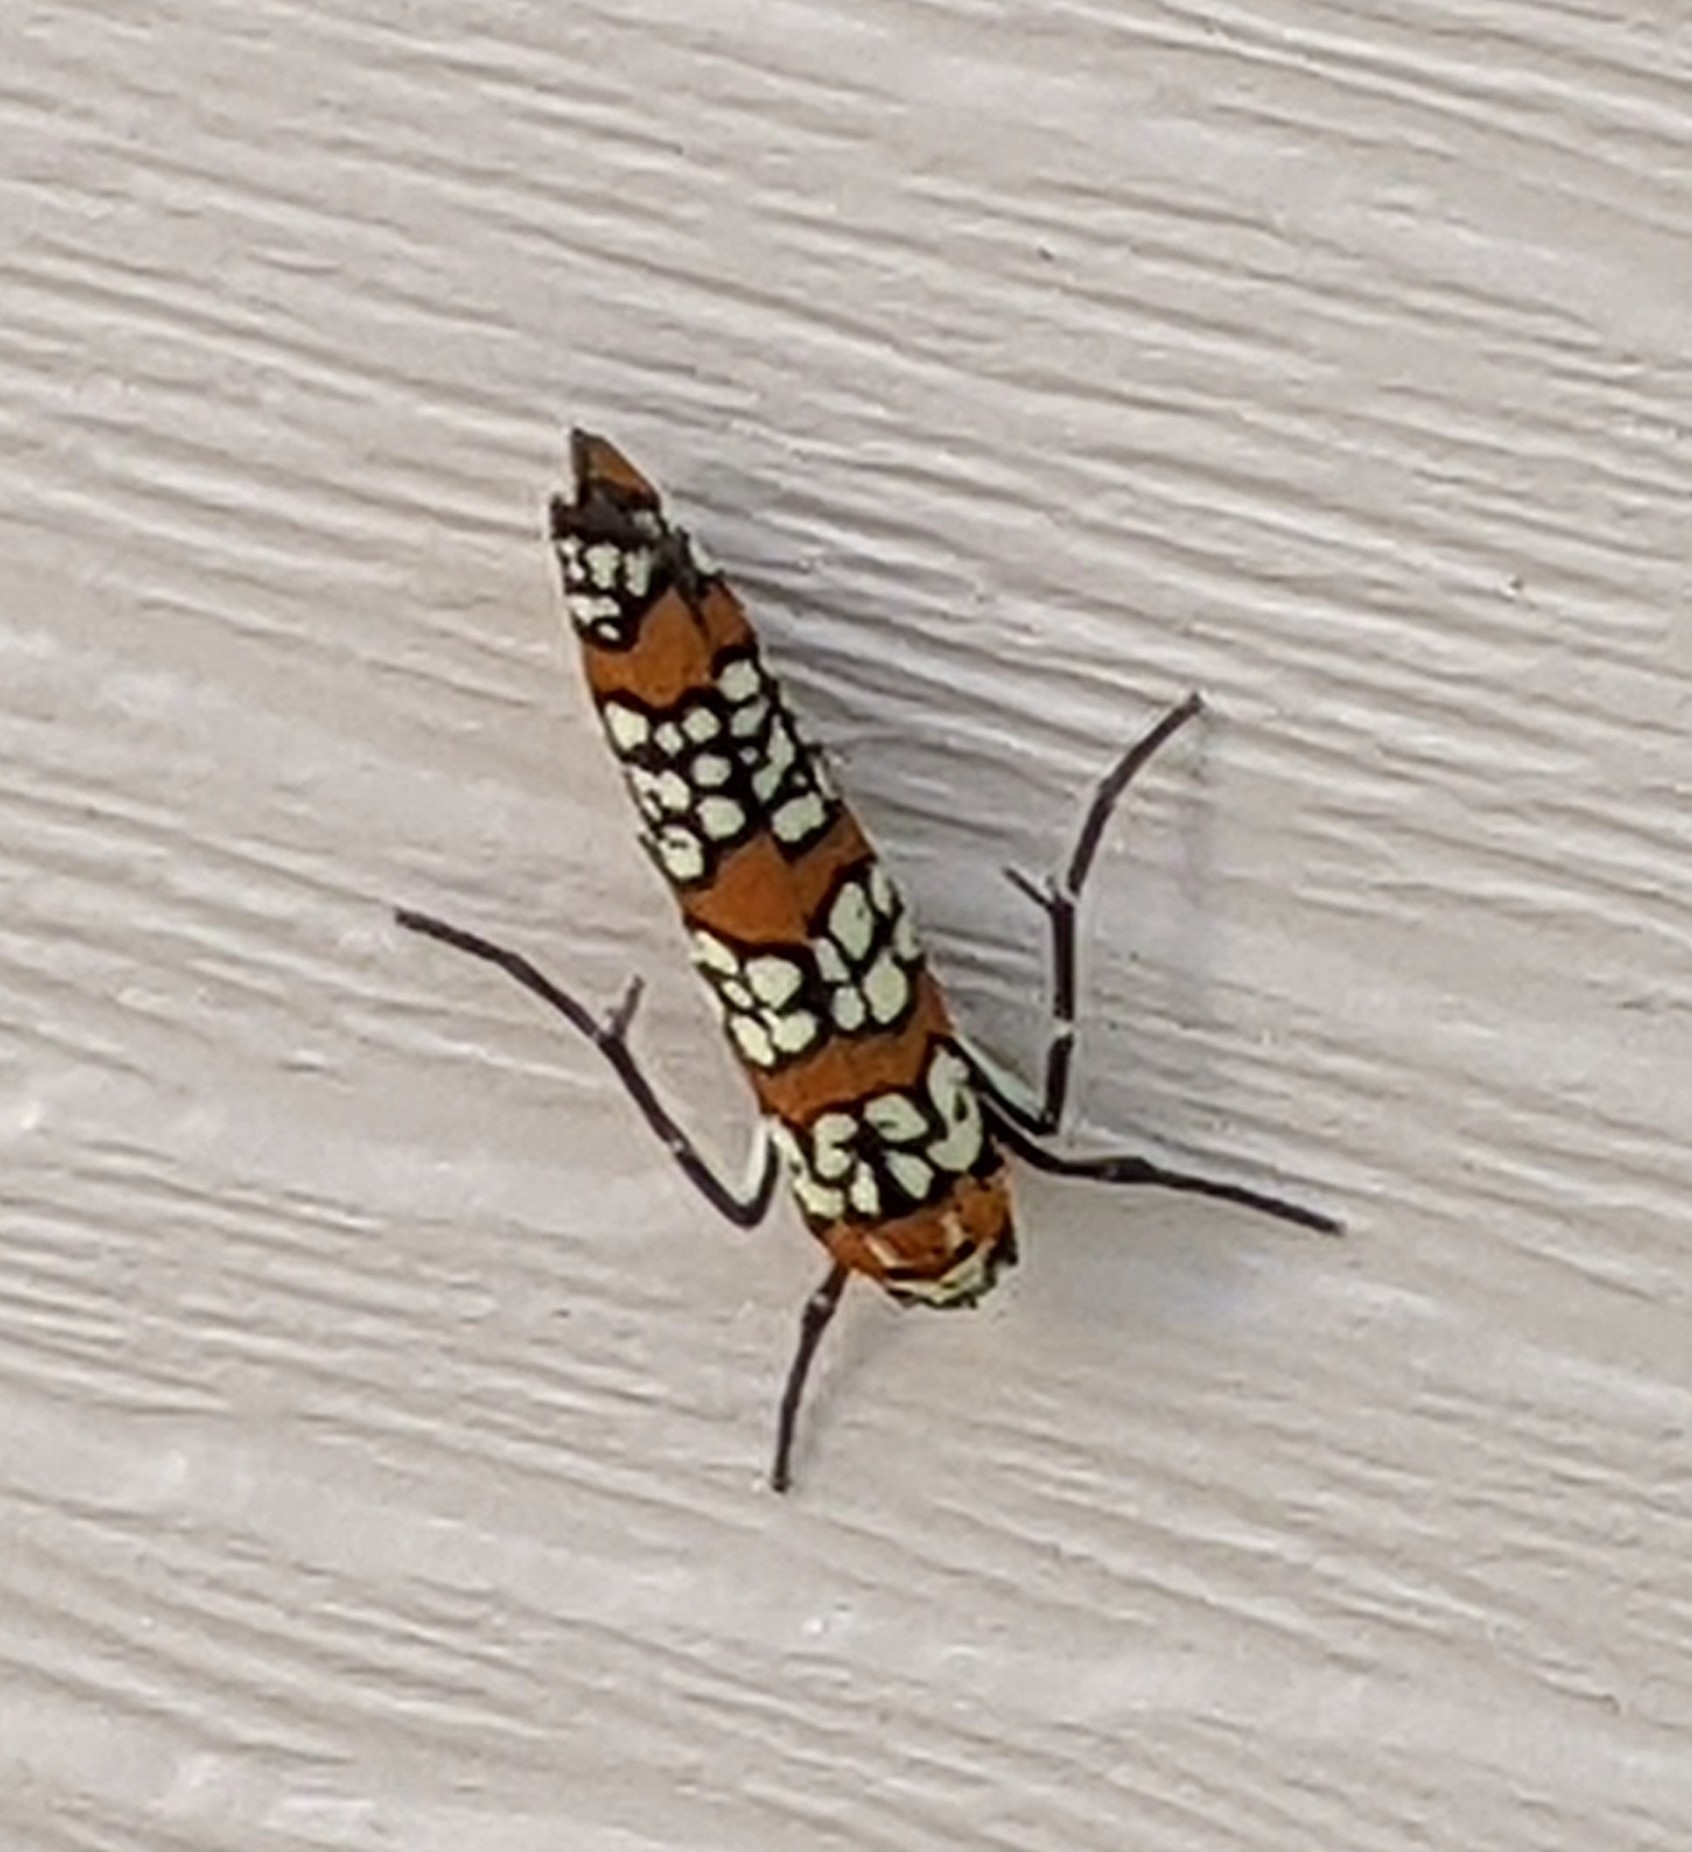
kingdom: Animalia
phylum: Arthropoda
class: Insecta
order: Lepidoptera
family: Attevidae
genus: Atteva
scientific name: Atteva punctella
